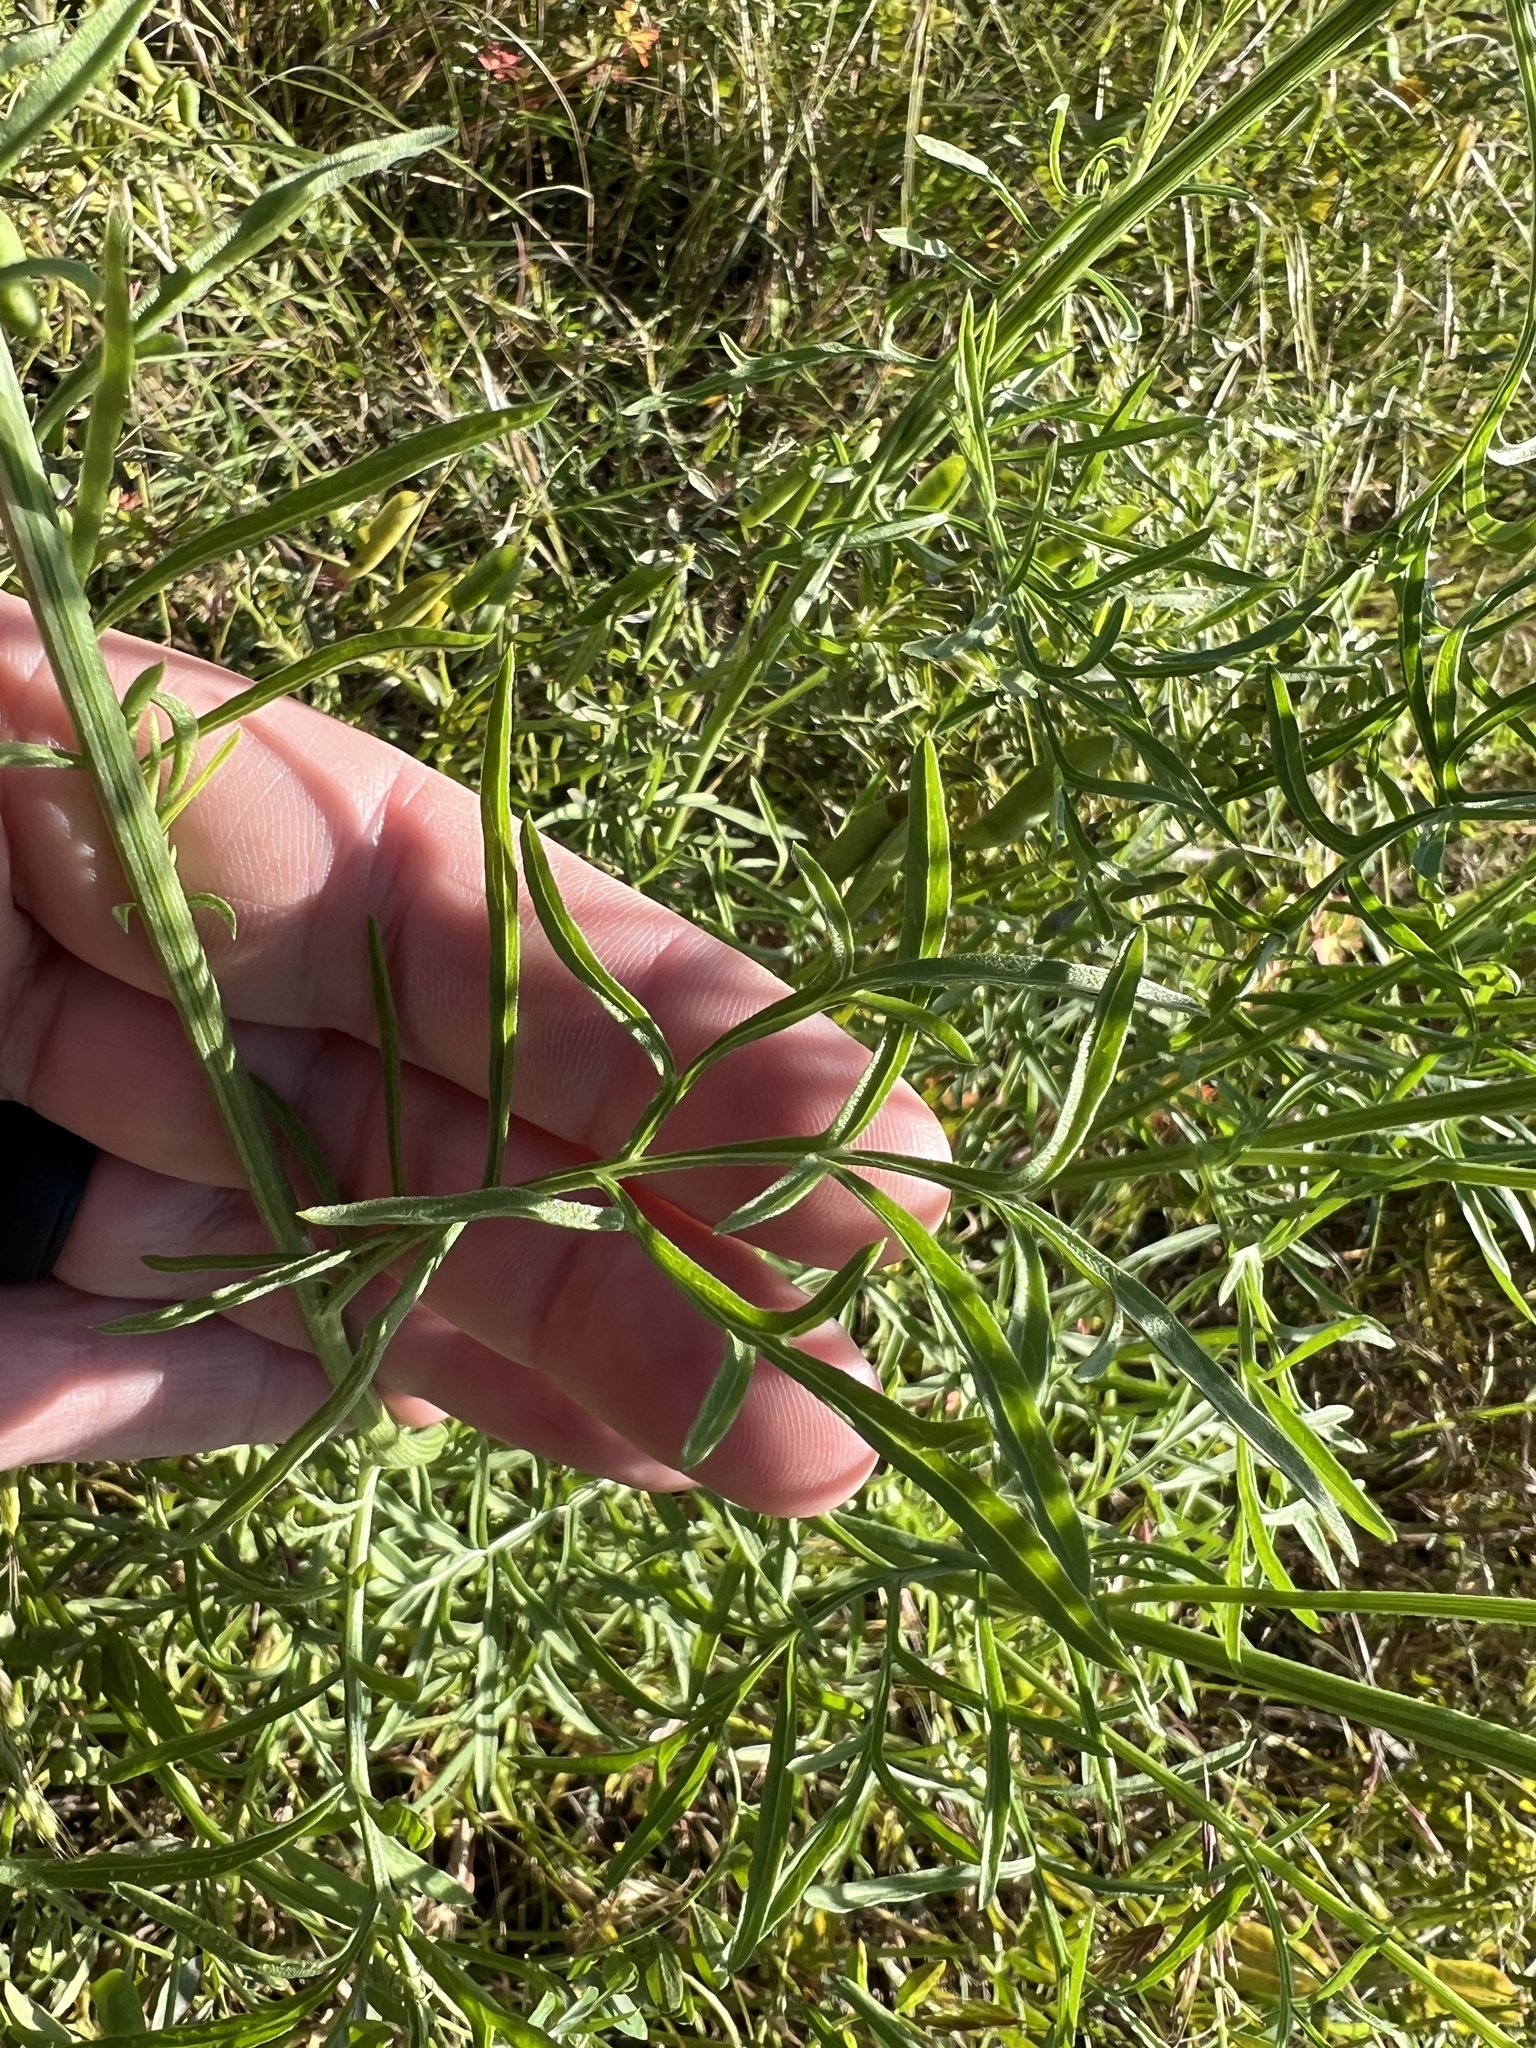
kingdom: Plantae
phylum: Tracheophyta
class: Magnoliopsida
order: Asterales
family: Asteraceae
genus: Ratibida
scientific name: Ratibida columnifera
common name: Prairie coneflower
